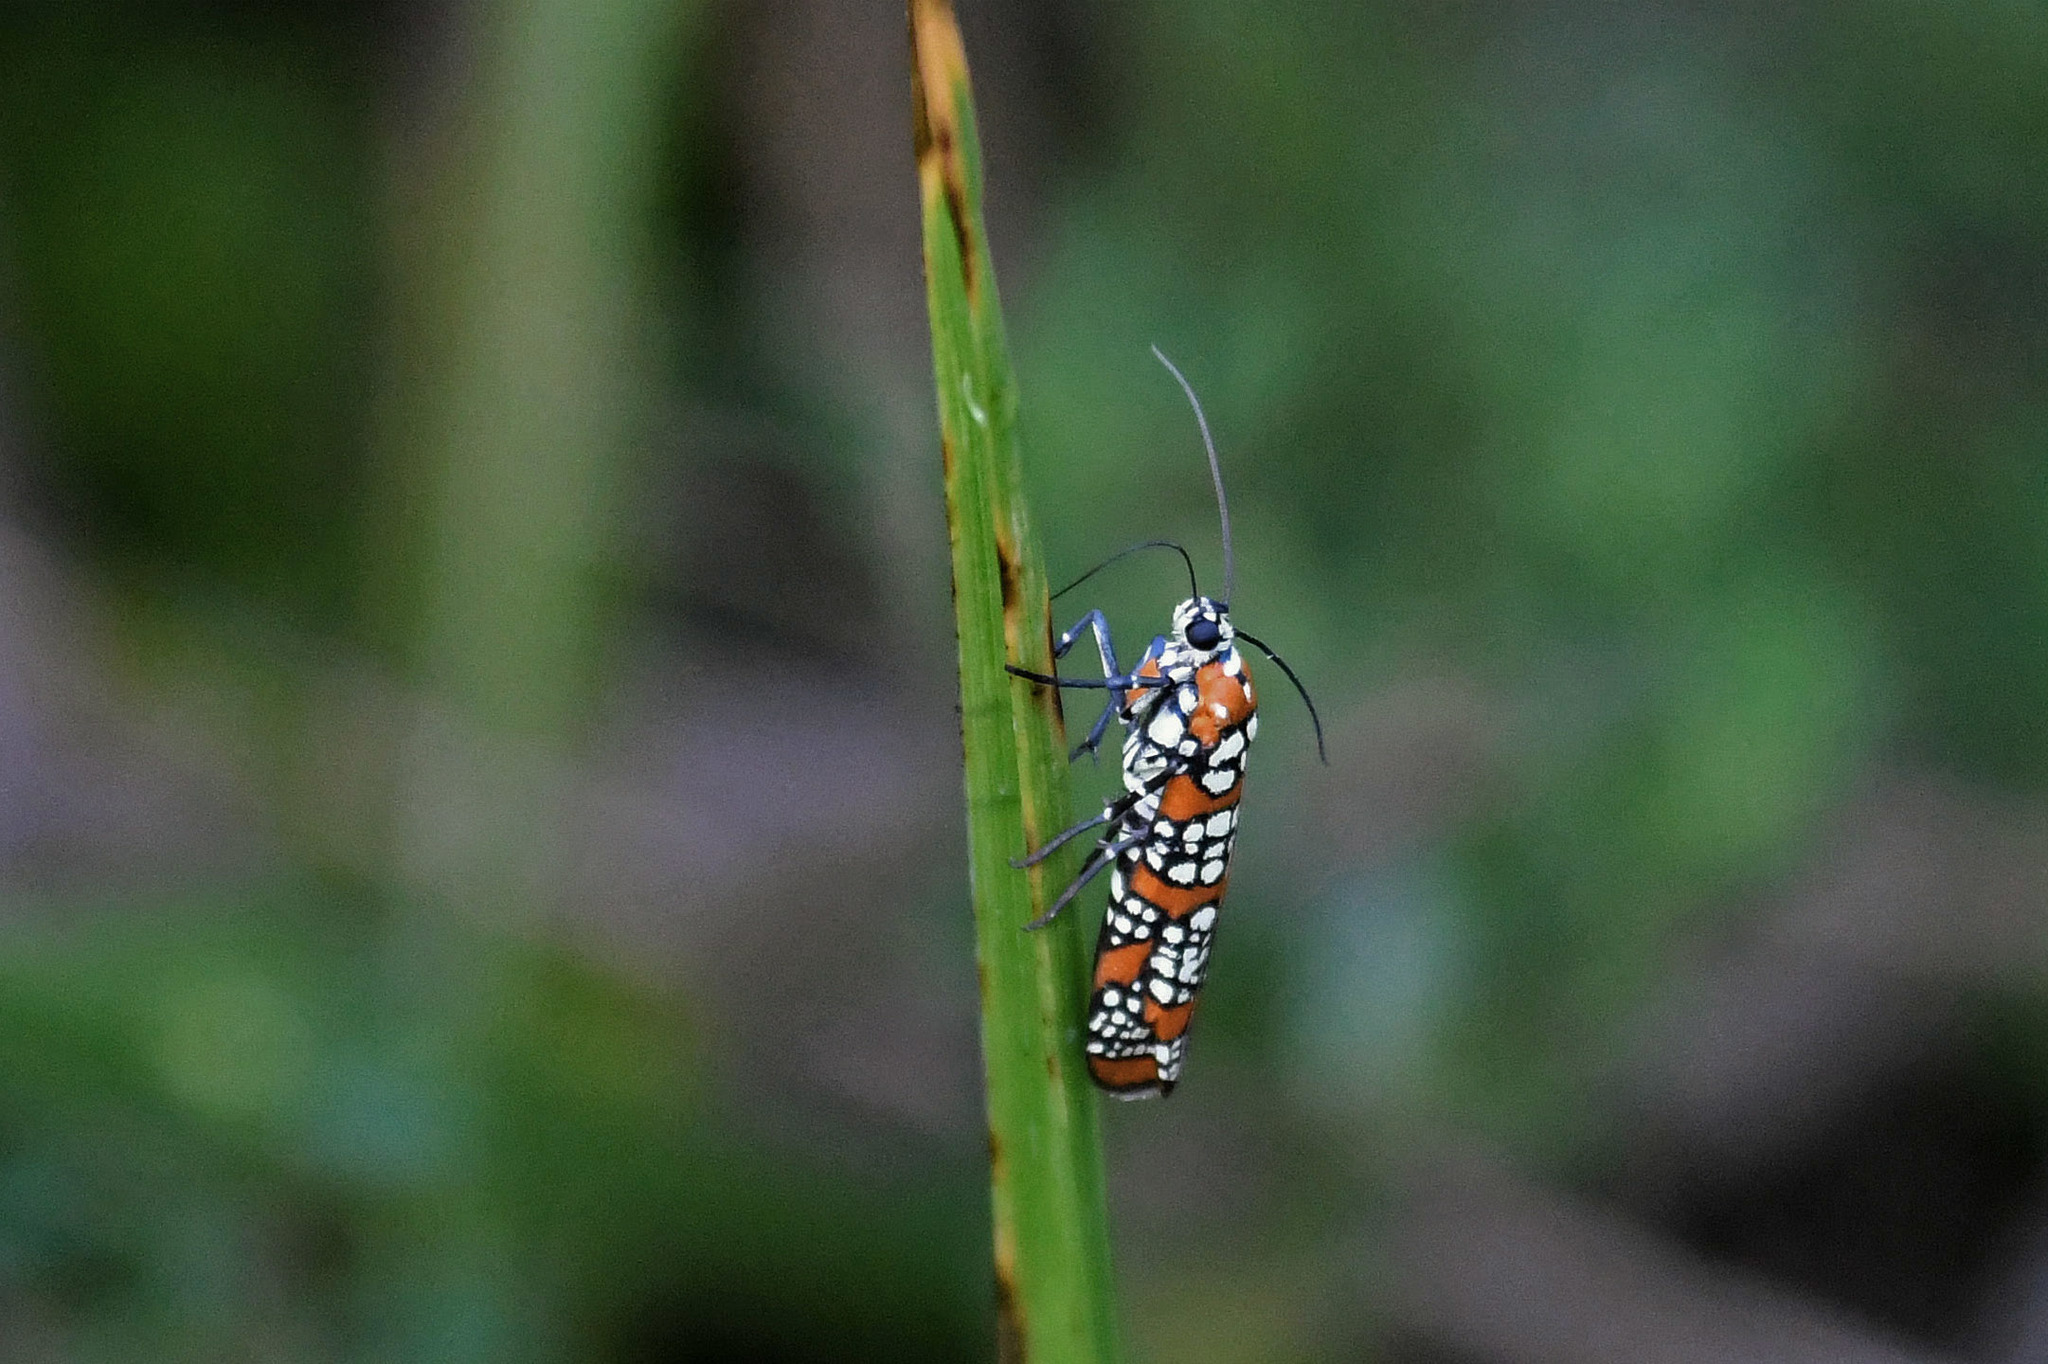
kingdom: Animalia
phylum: Arthropoda
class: Insecta
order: Lepidoptera
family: Attevidae
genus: Atteva
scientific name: Atteva punctella
